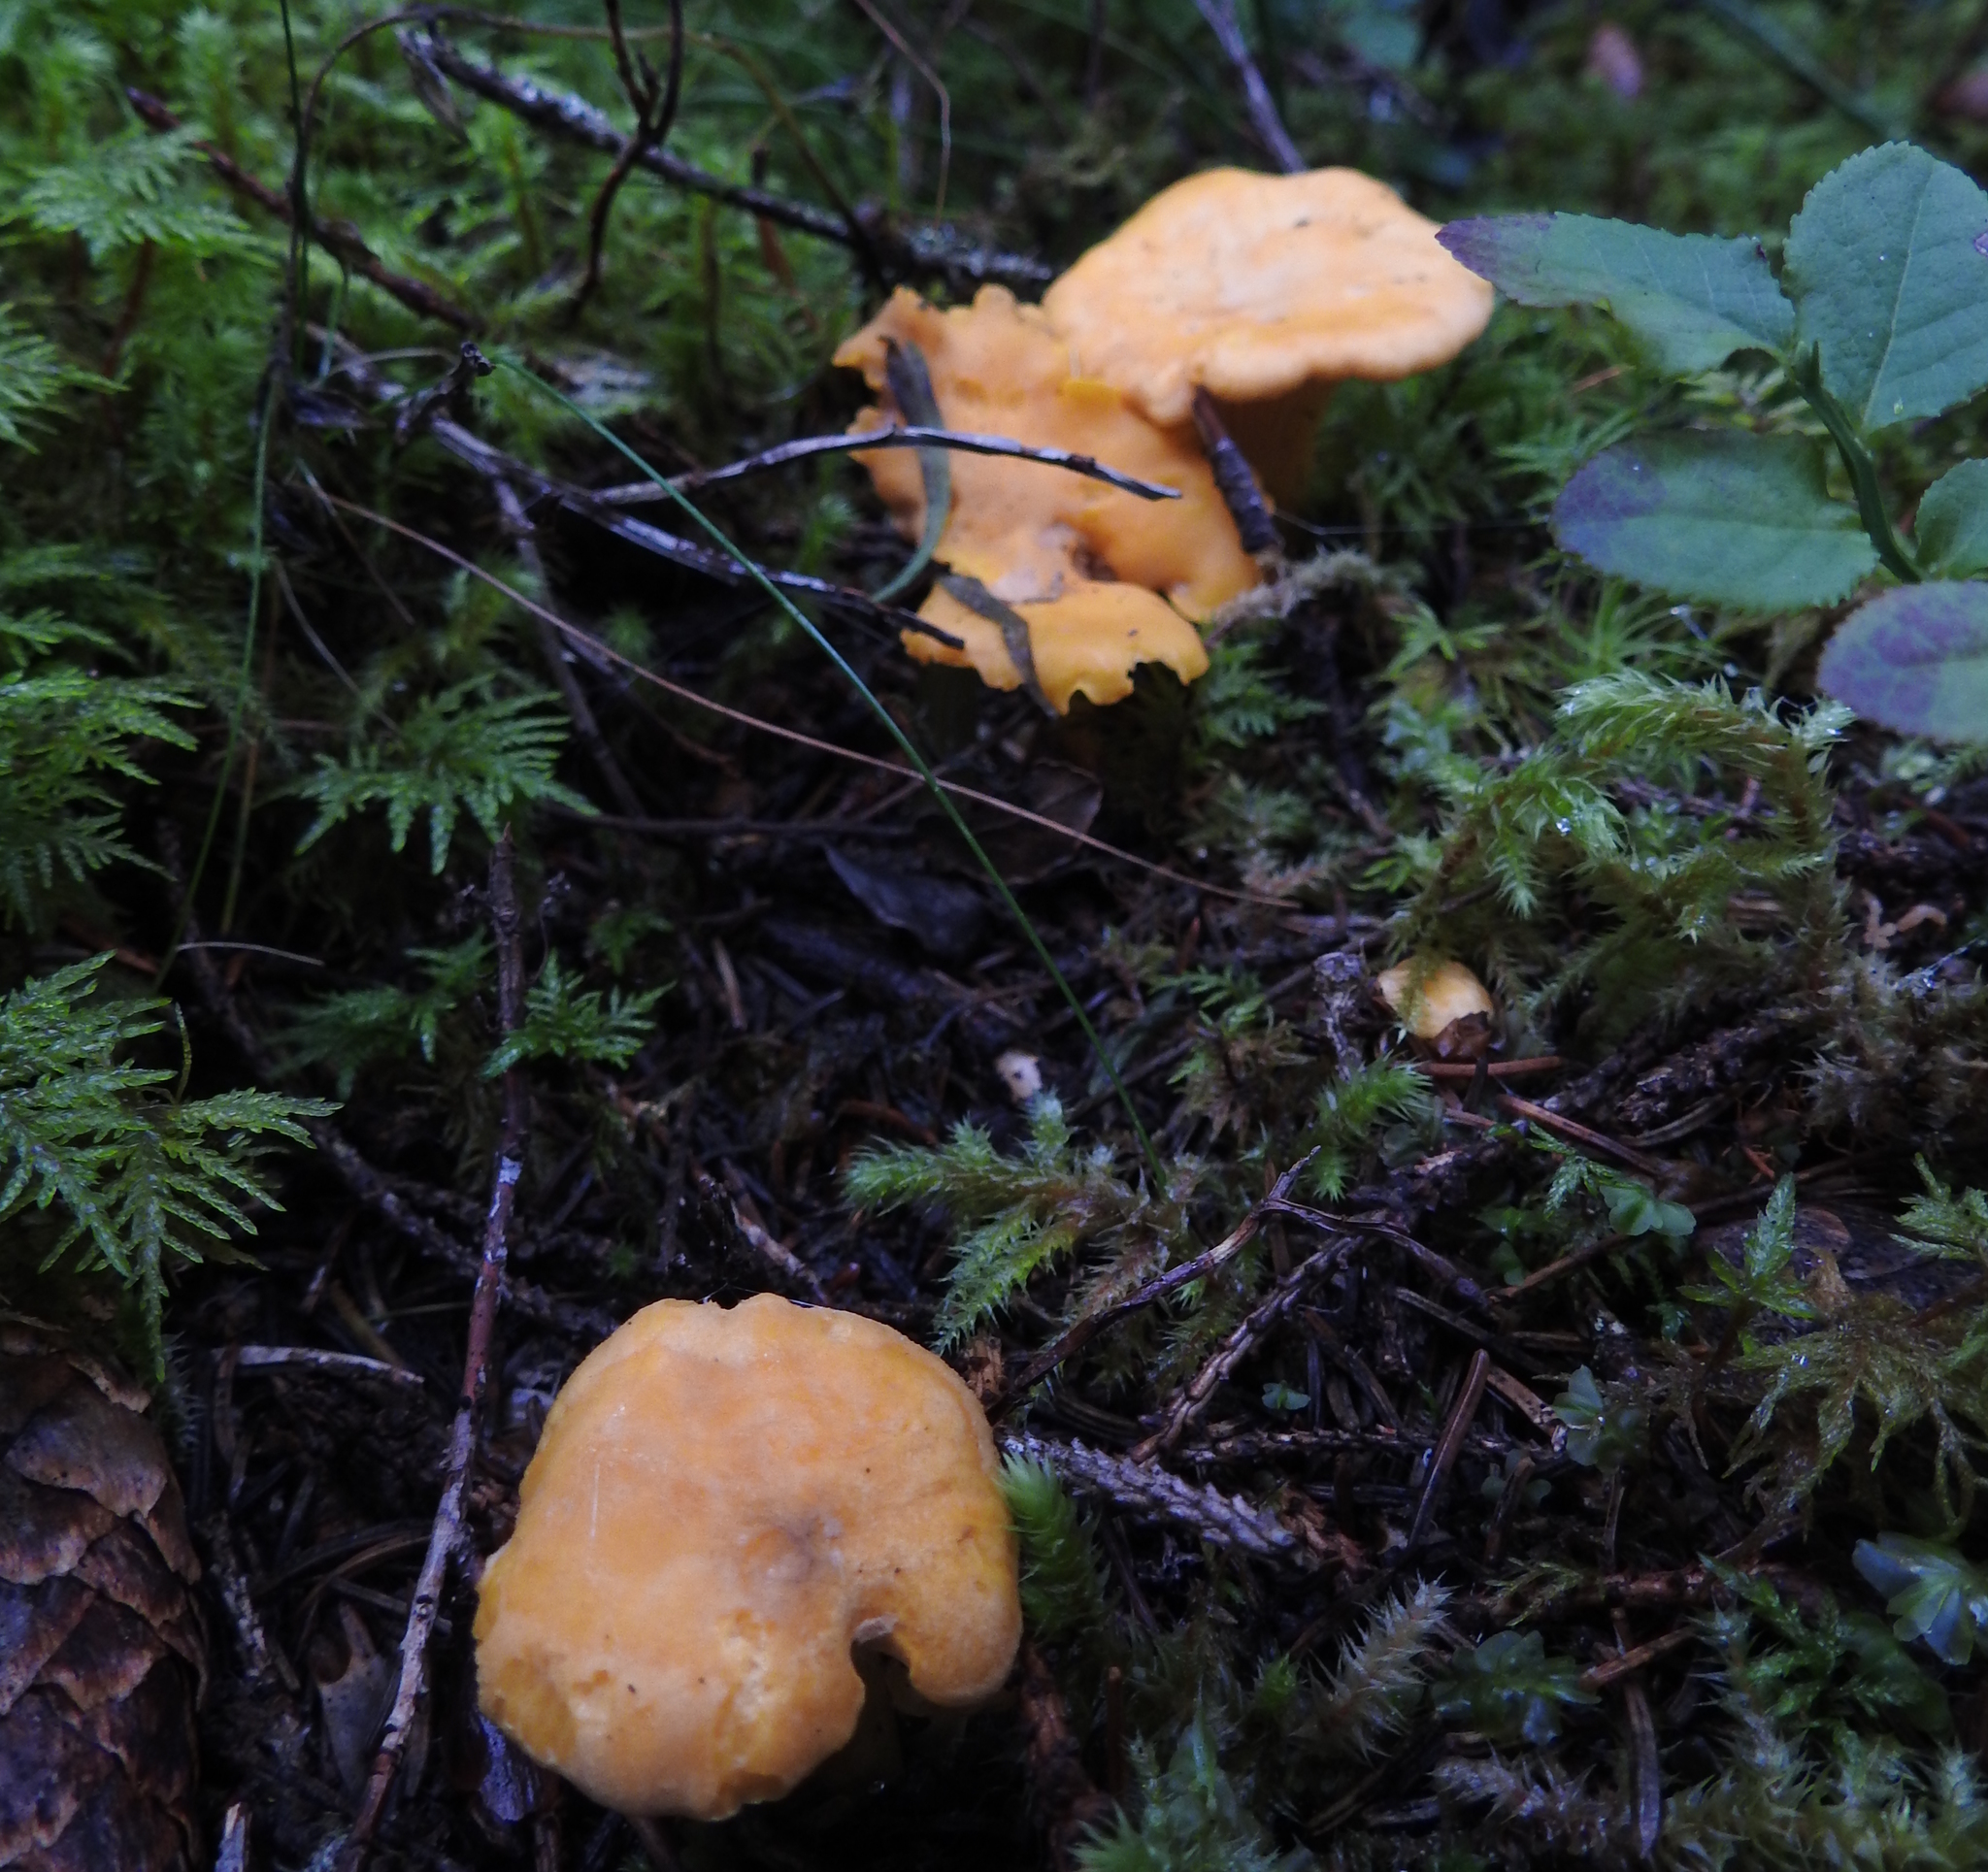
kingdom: Fungi
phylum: Basidiomycota
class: Agaricomycetes
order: Cantharellales
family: Hydnaceae
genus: Cantharellus
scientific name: Cantharellus cibarius
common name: Chanterelle
